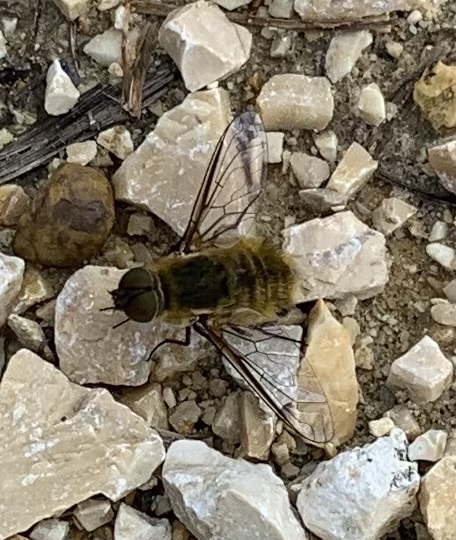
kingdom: Animalia
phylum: Arthropoda
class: Insecta
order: Diptera
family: Bombyliidae
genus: Villa
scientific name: Villa hottentotta
